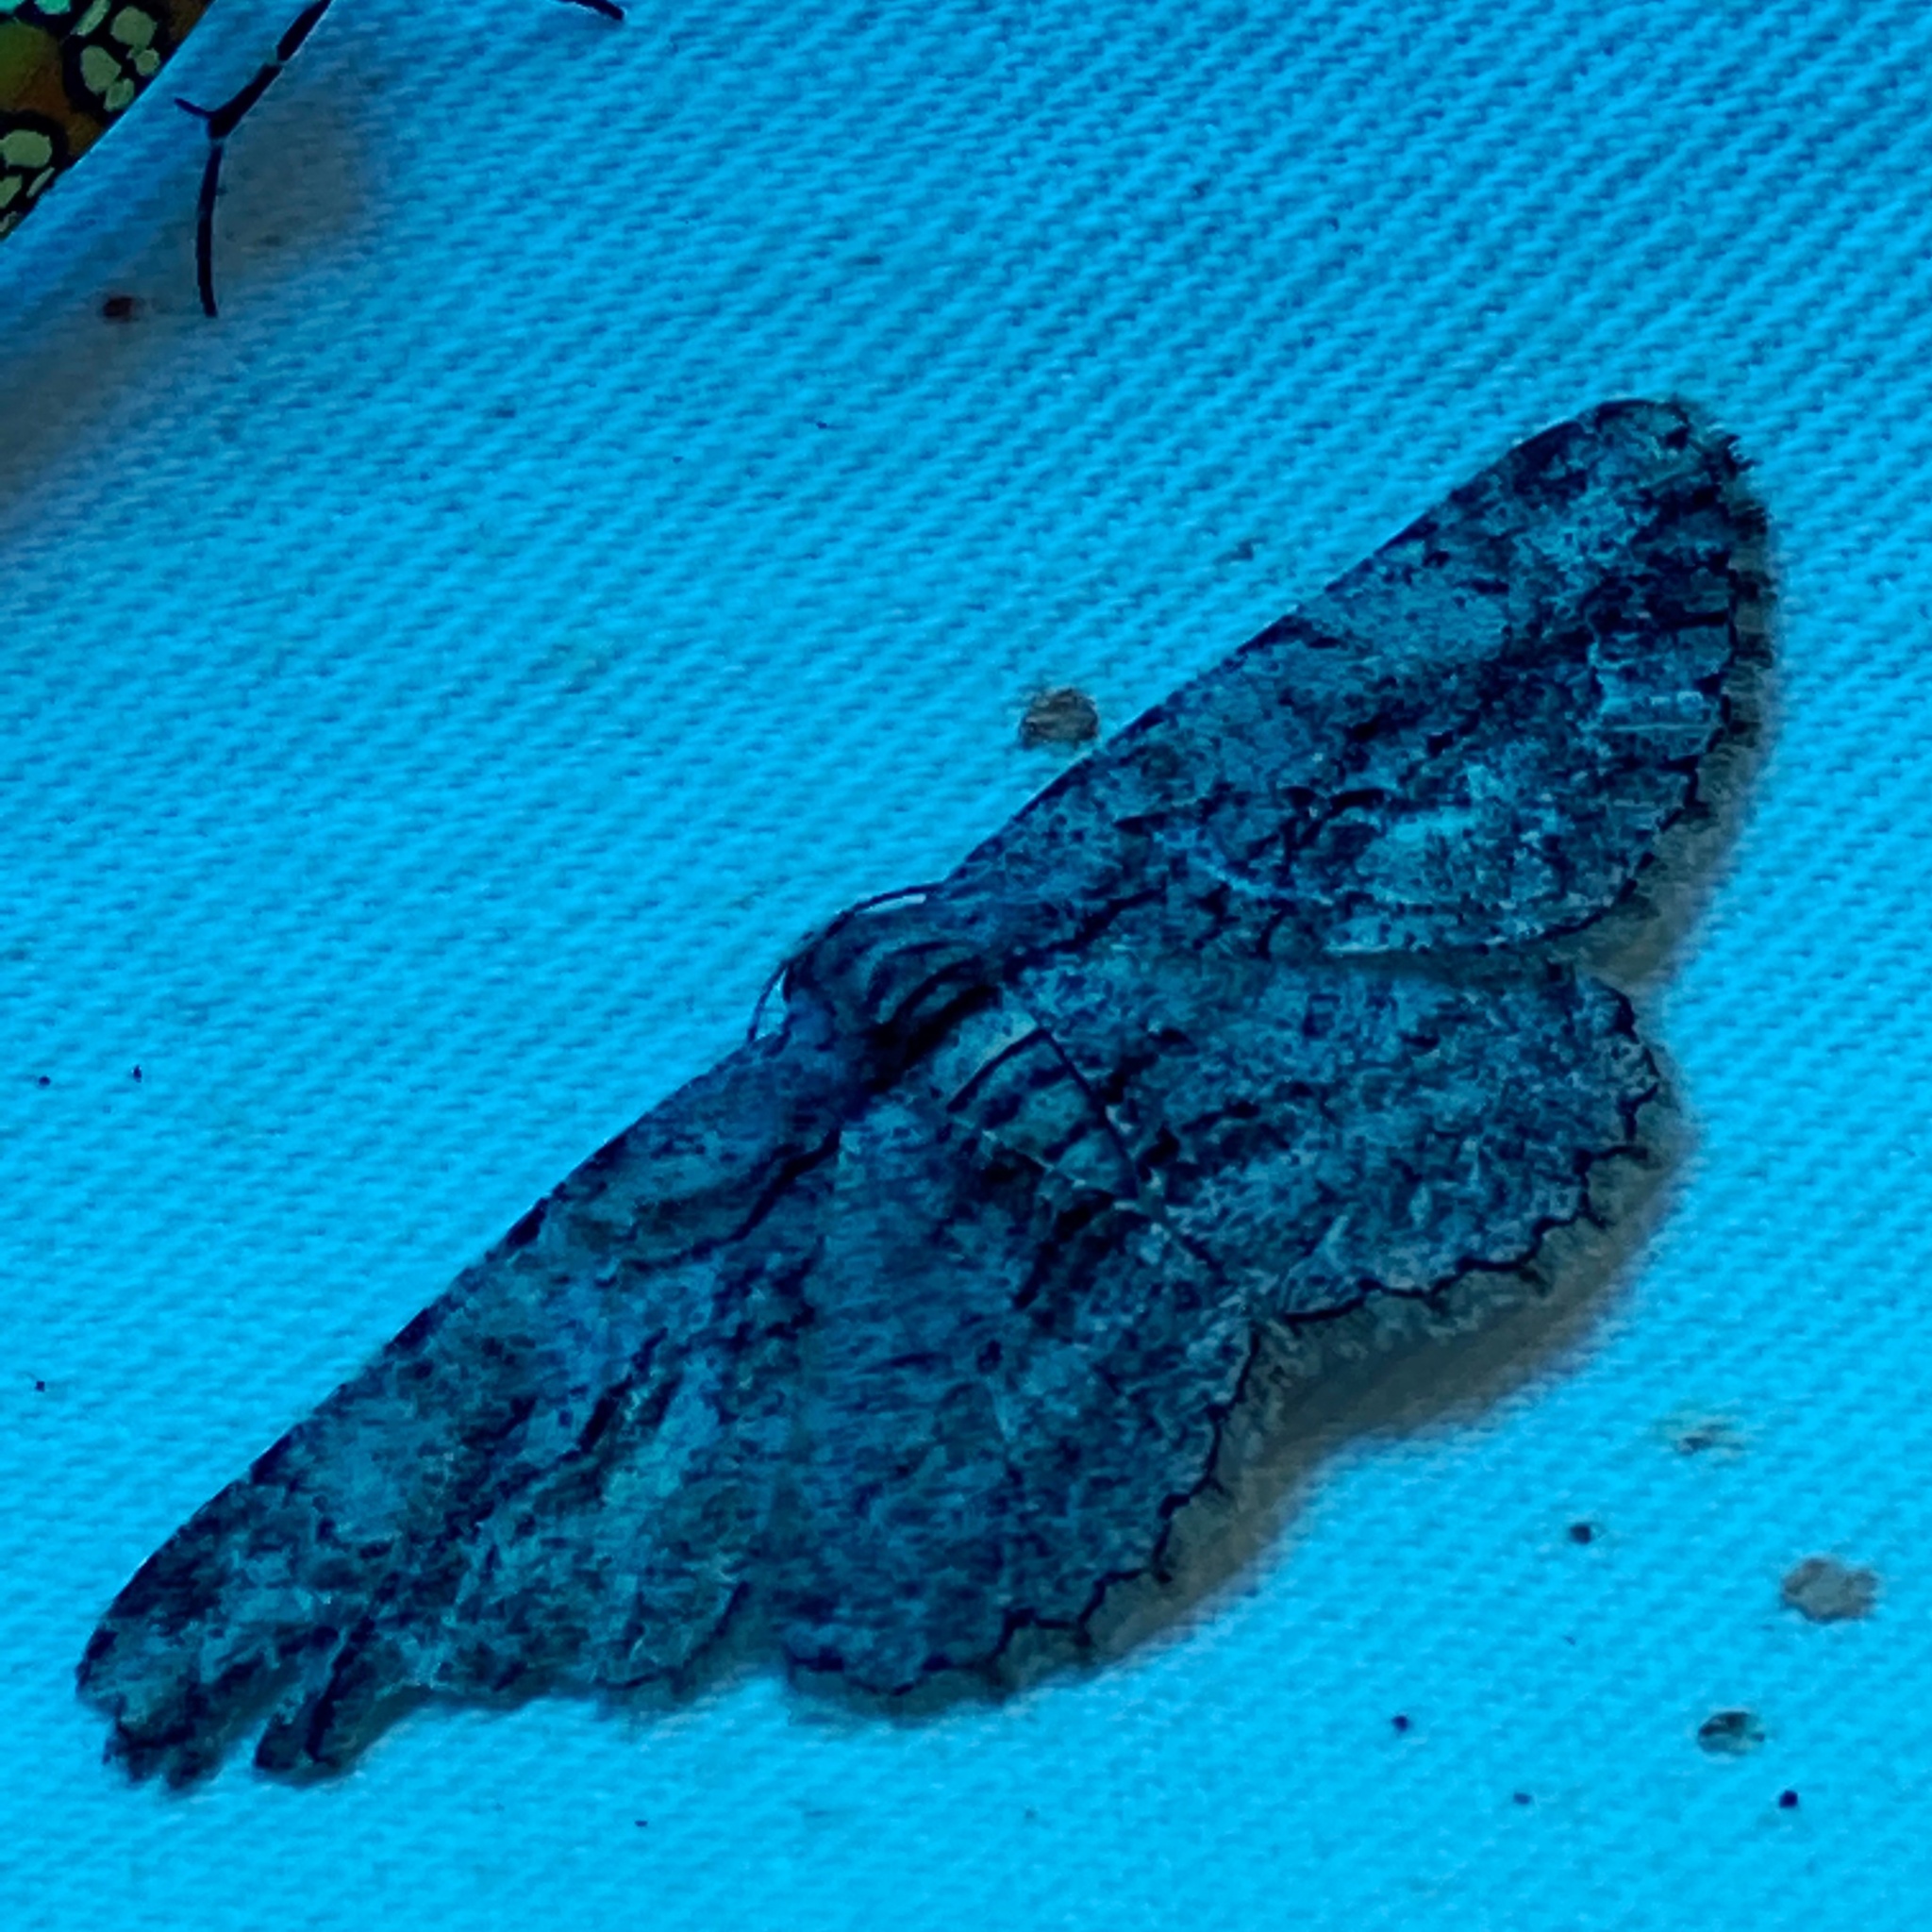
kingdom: Animalia
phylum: Arthropoda
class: Insecta
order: Lepidoptera
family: Geometridae
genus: Anavitrinella
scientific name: Anavitrinella pampinaria
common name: Common gray
